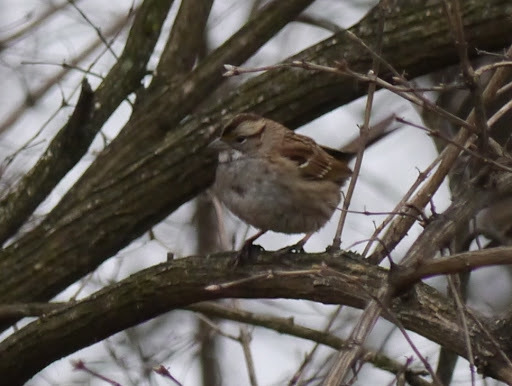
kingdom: Animalia
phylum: Chordata
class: Aves
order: Passeriformes
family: Passerellidae
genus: Zonotrichia
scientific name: Zonotrichia albicollis
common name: White-throated sparrow
